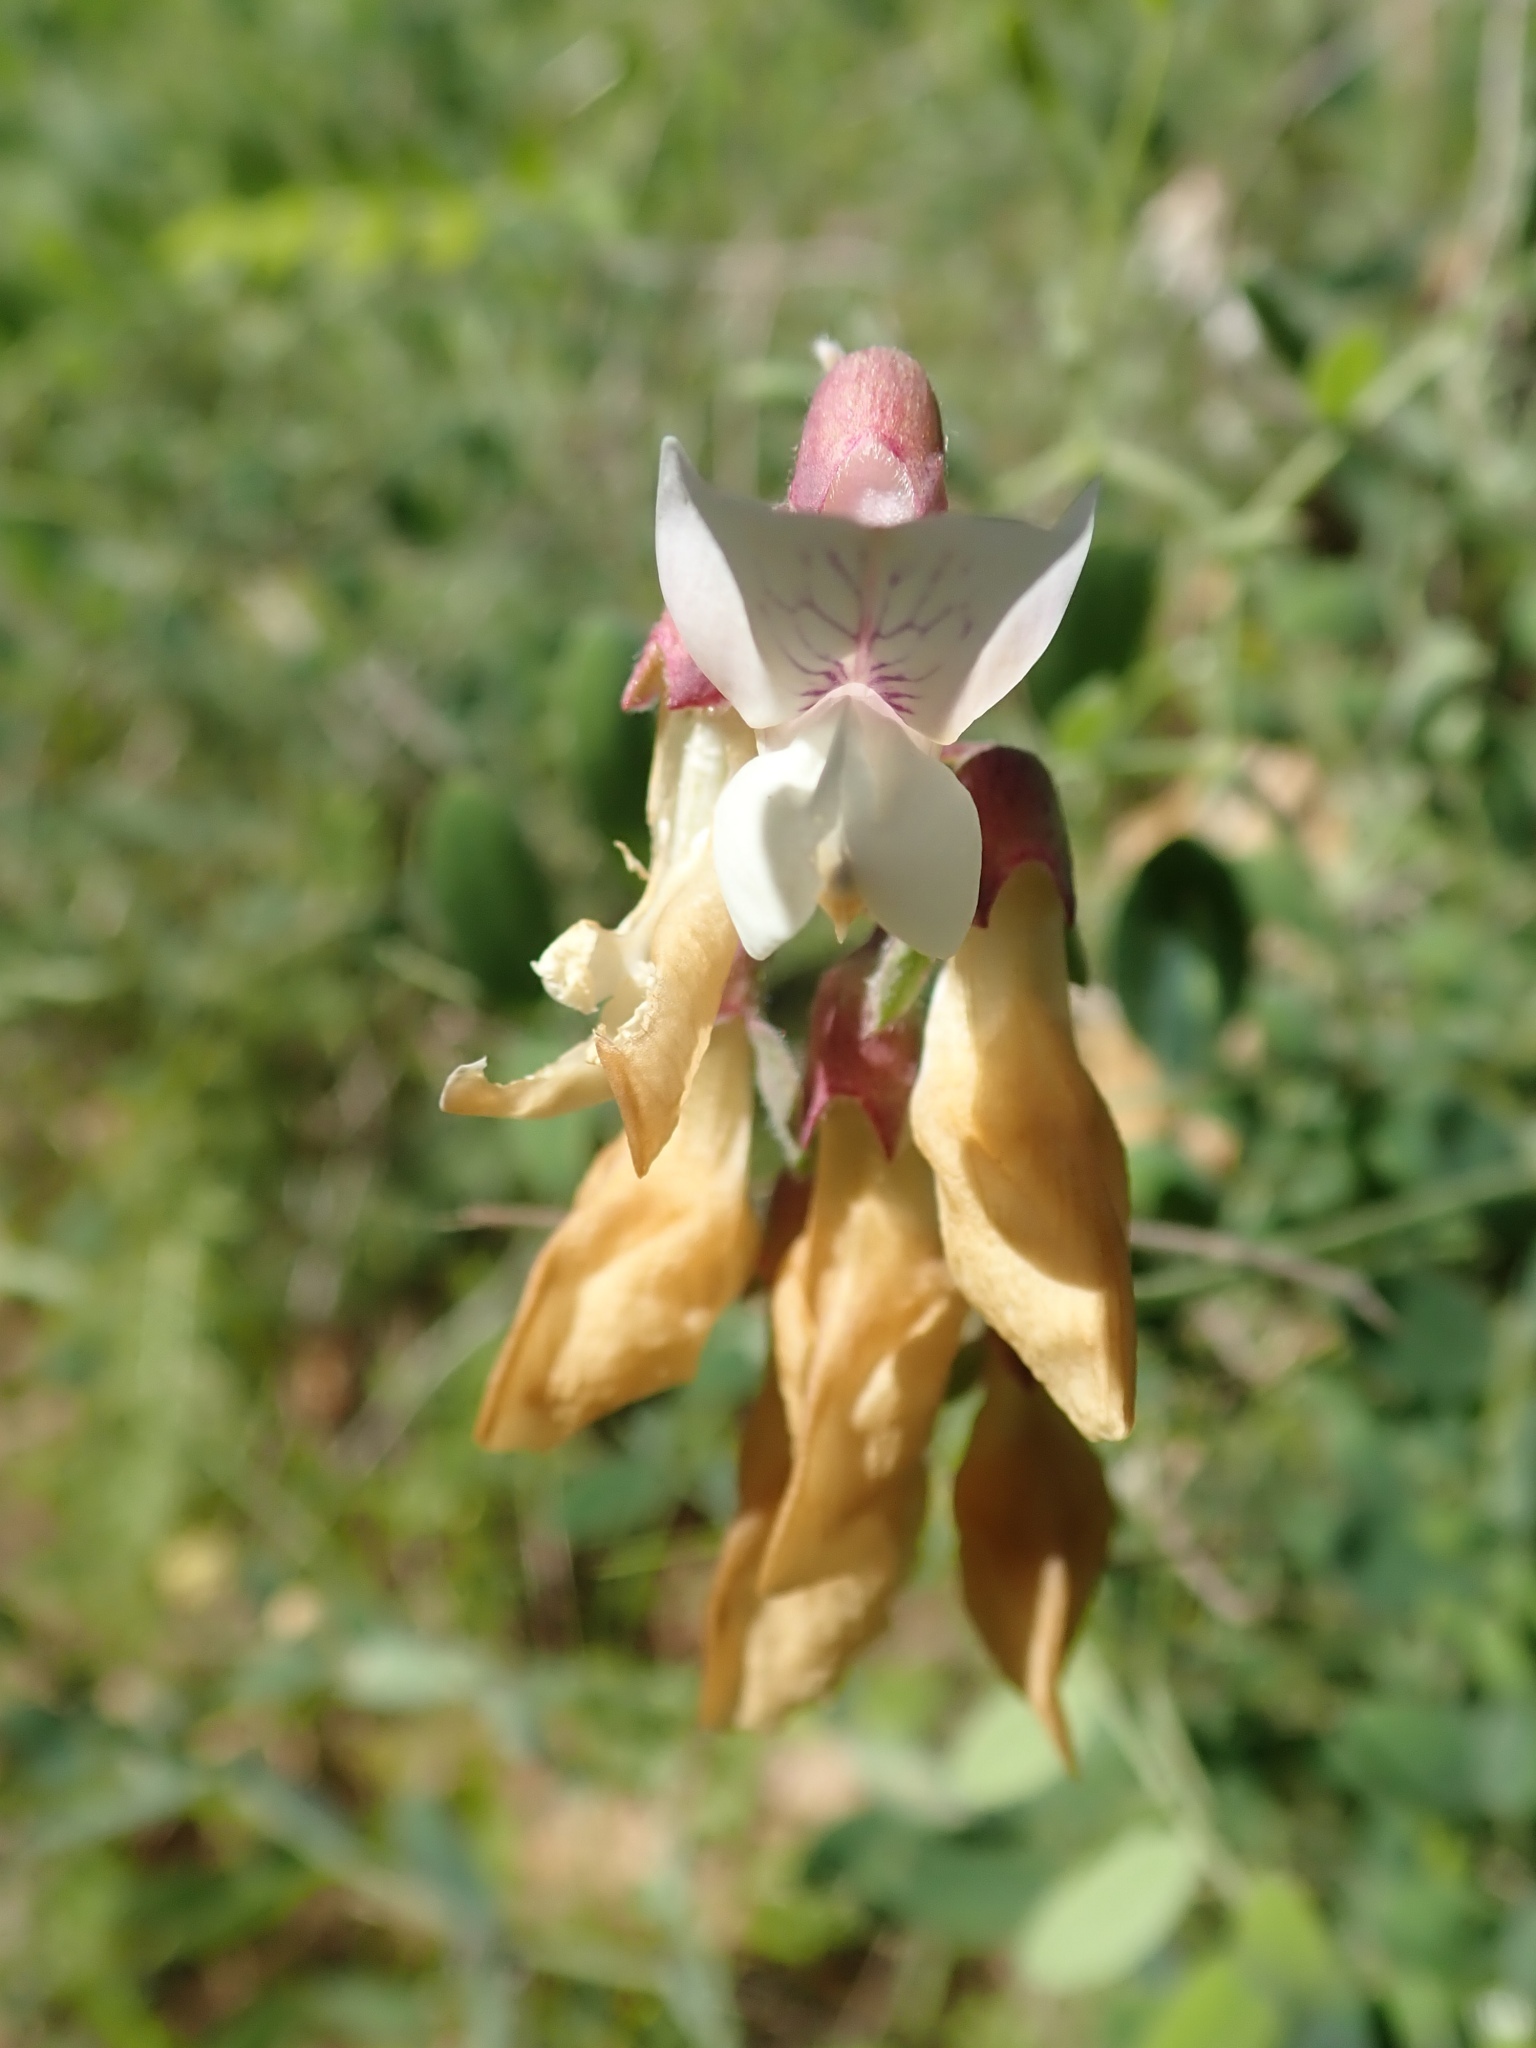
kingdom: Plantae
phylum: Tracheophyta
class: Magnoliopsida
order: Fabales
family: Fabaceae
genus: Lathyrus
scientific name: Lathyrus vestitus
